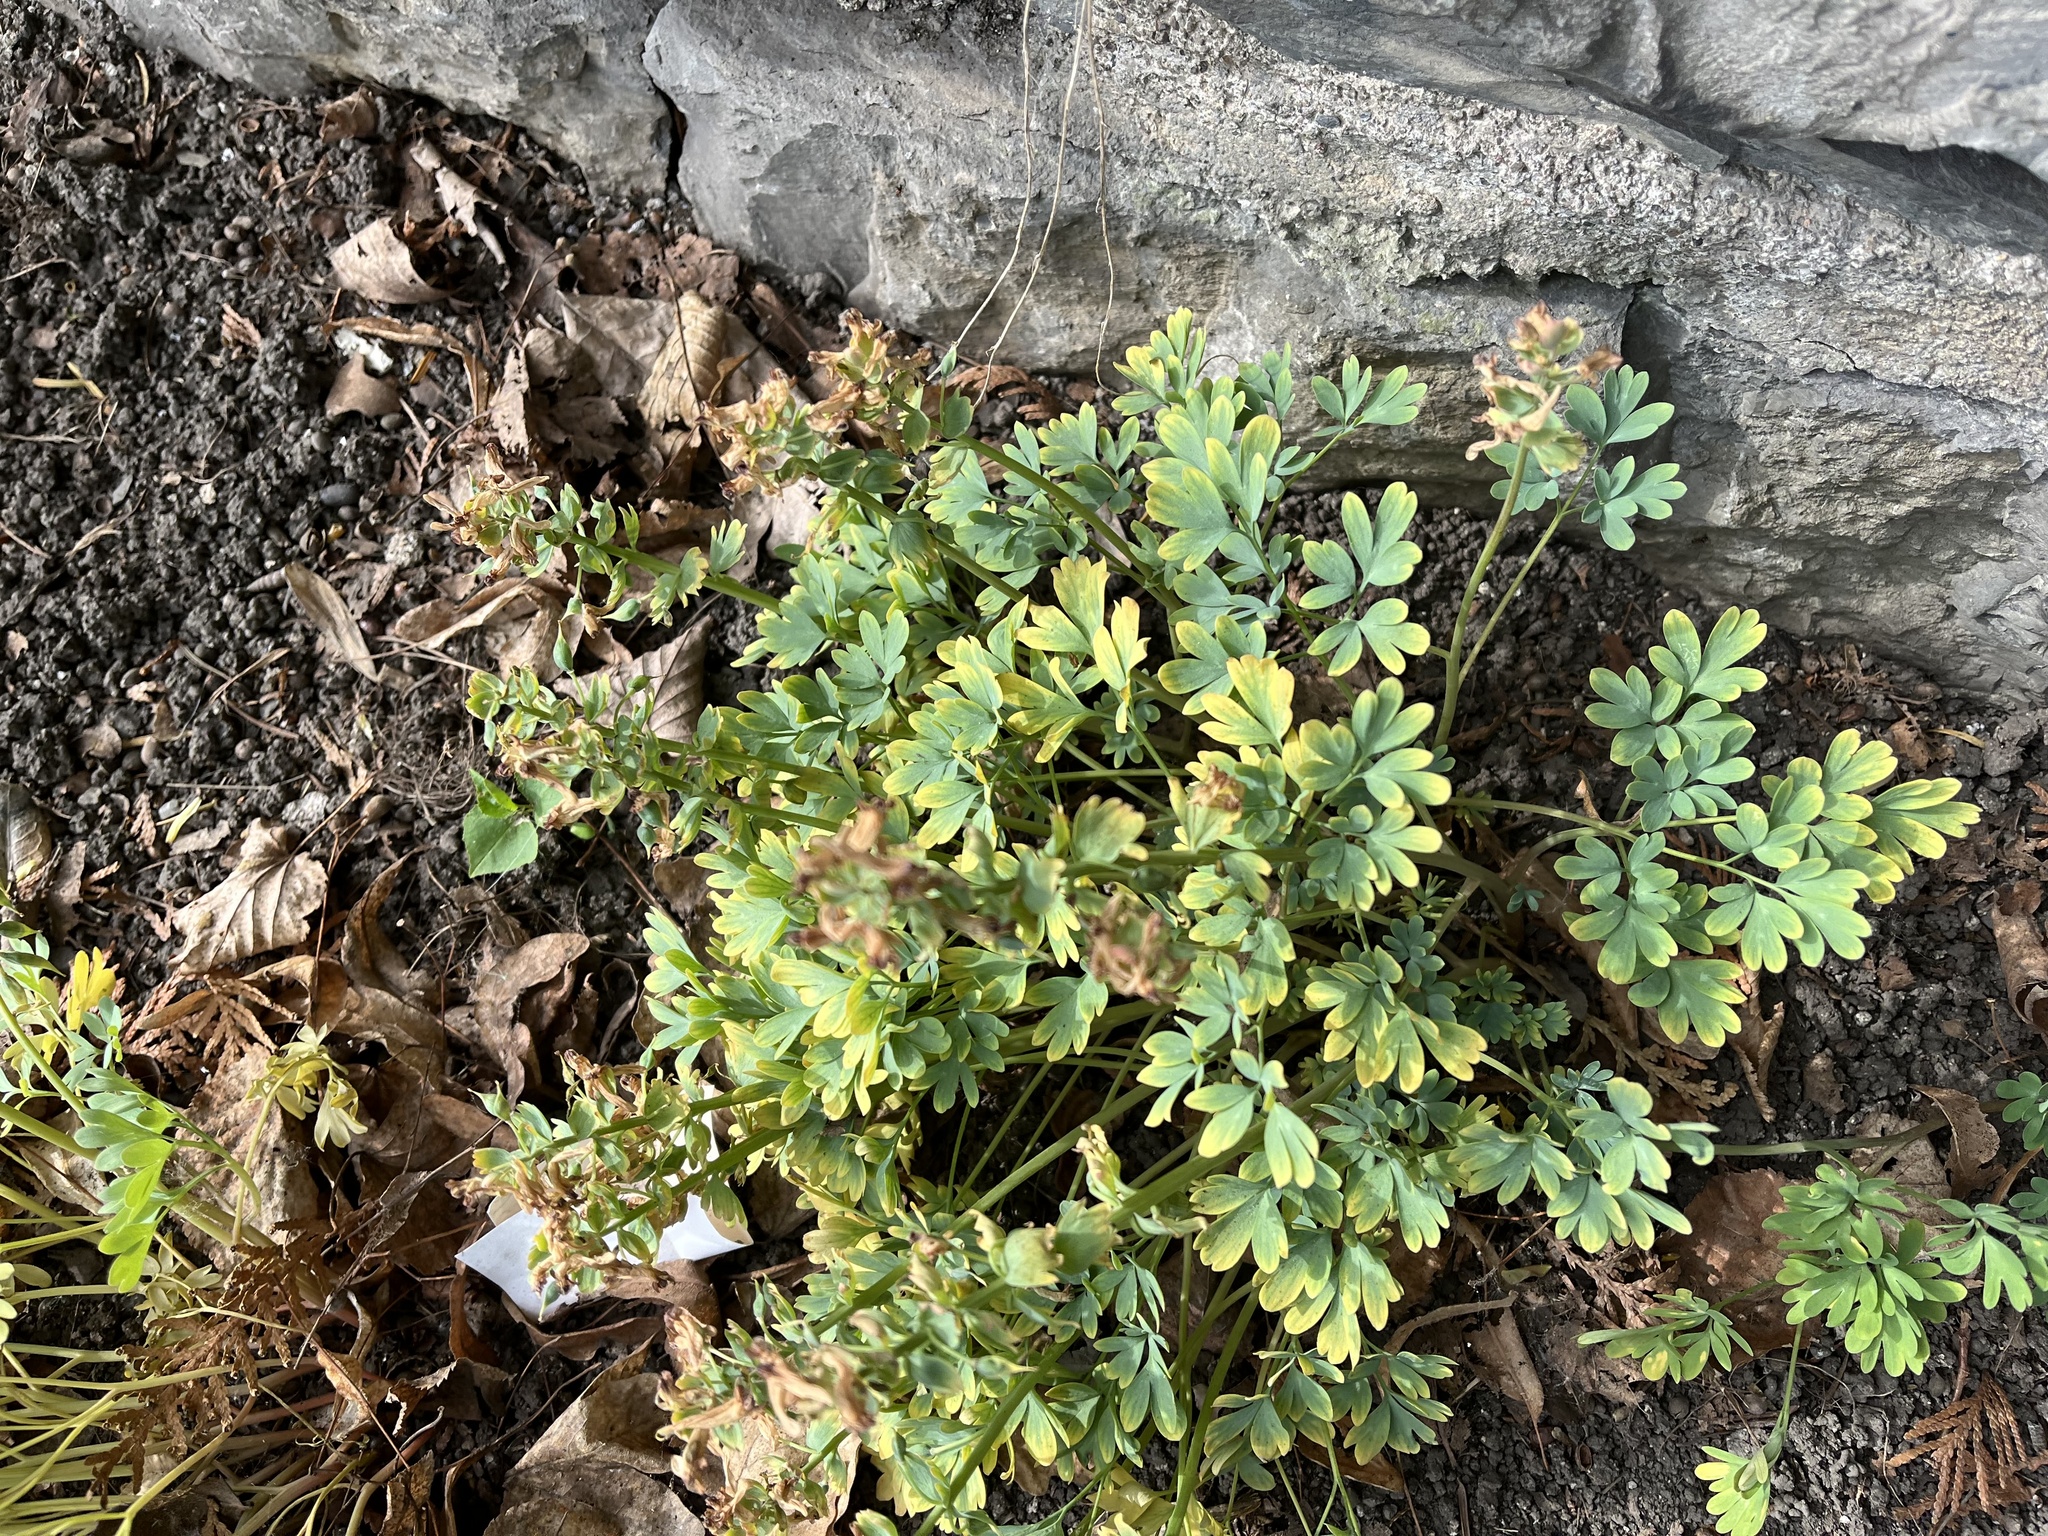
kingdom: Plantae
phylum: Tracheophyta
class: Magnoliopsida
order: Ranunculales
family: Papaveraceae
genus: Corydalis
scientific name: Corydalis solida
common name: Bird-in-a-bush
